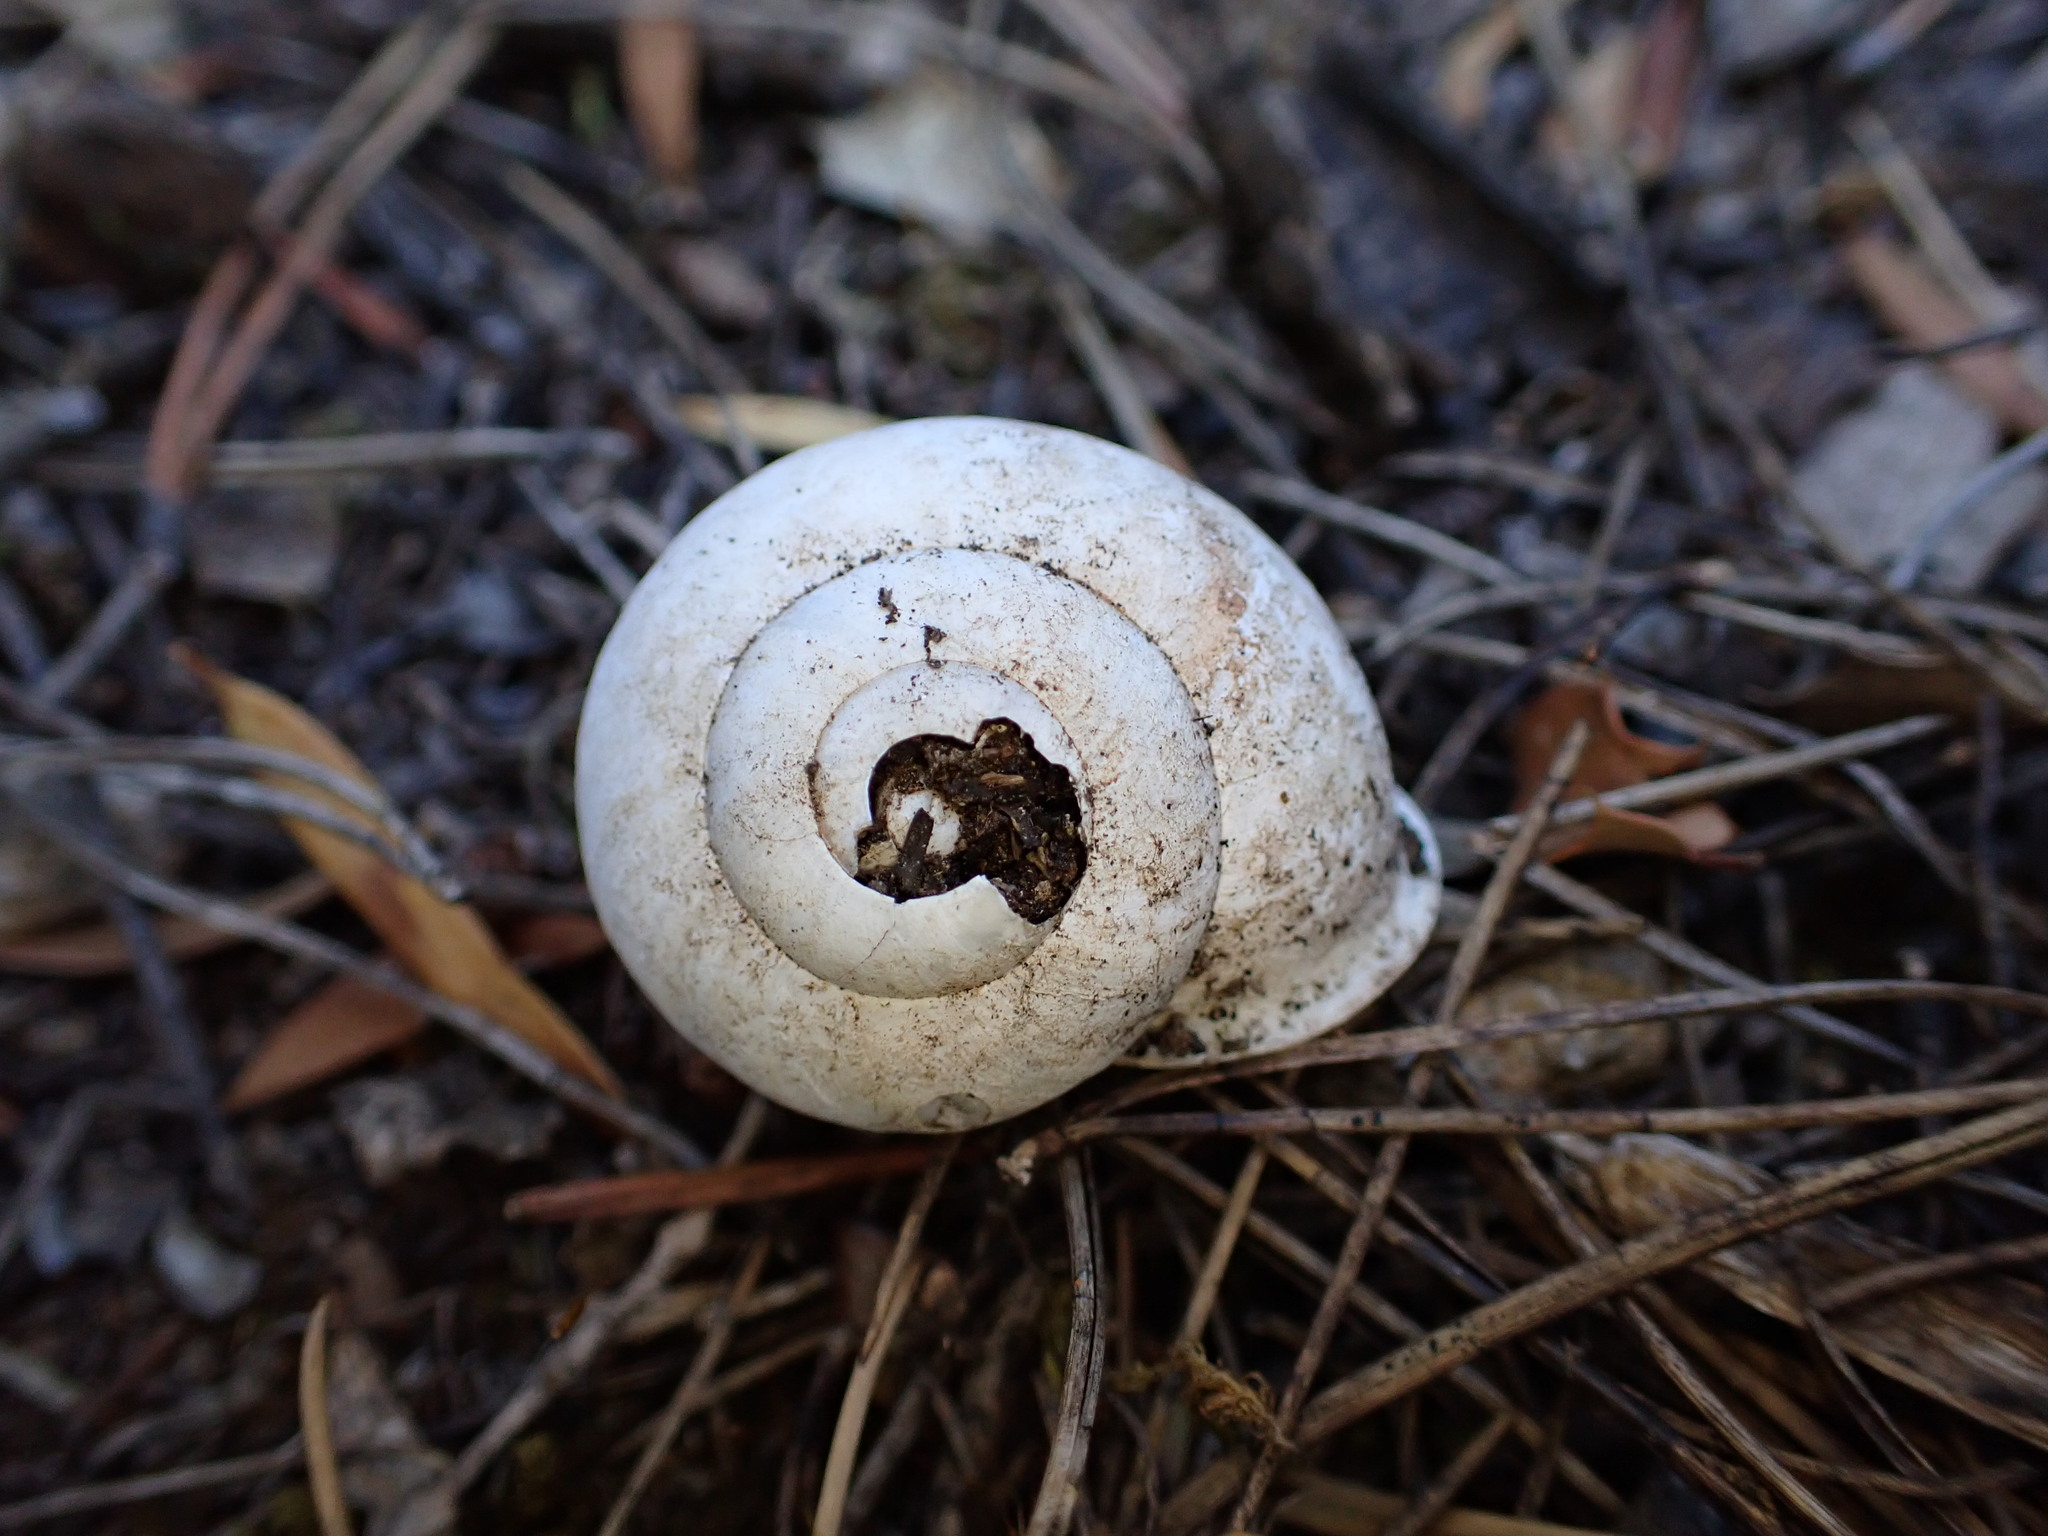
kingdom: Animalia
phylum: Mollusca
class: Gastropoda
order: Stylommatophora
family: Helicidae
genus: Eobania
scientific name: Eobania vermiculata
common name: Chocolateband snail
